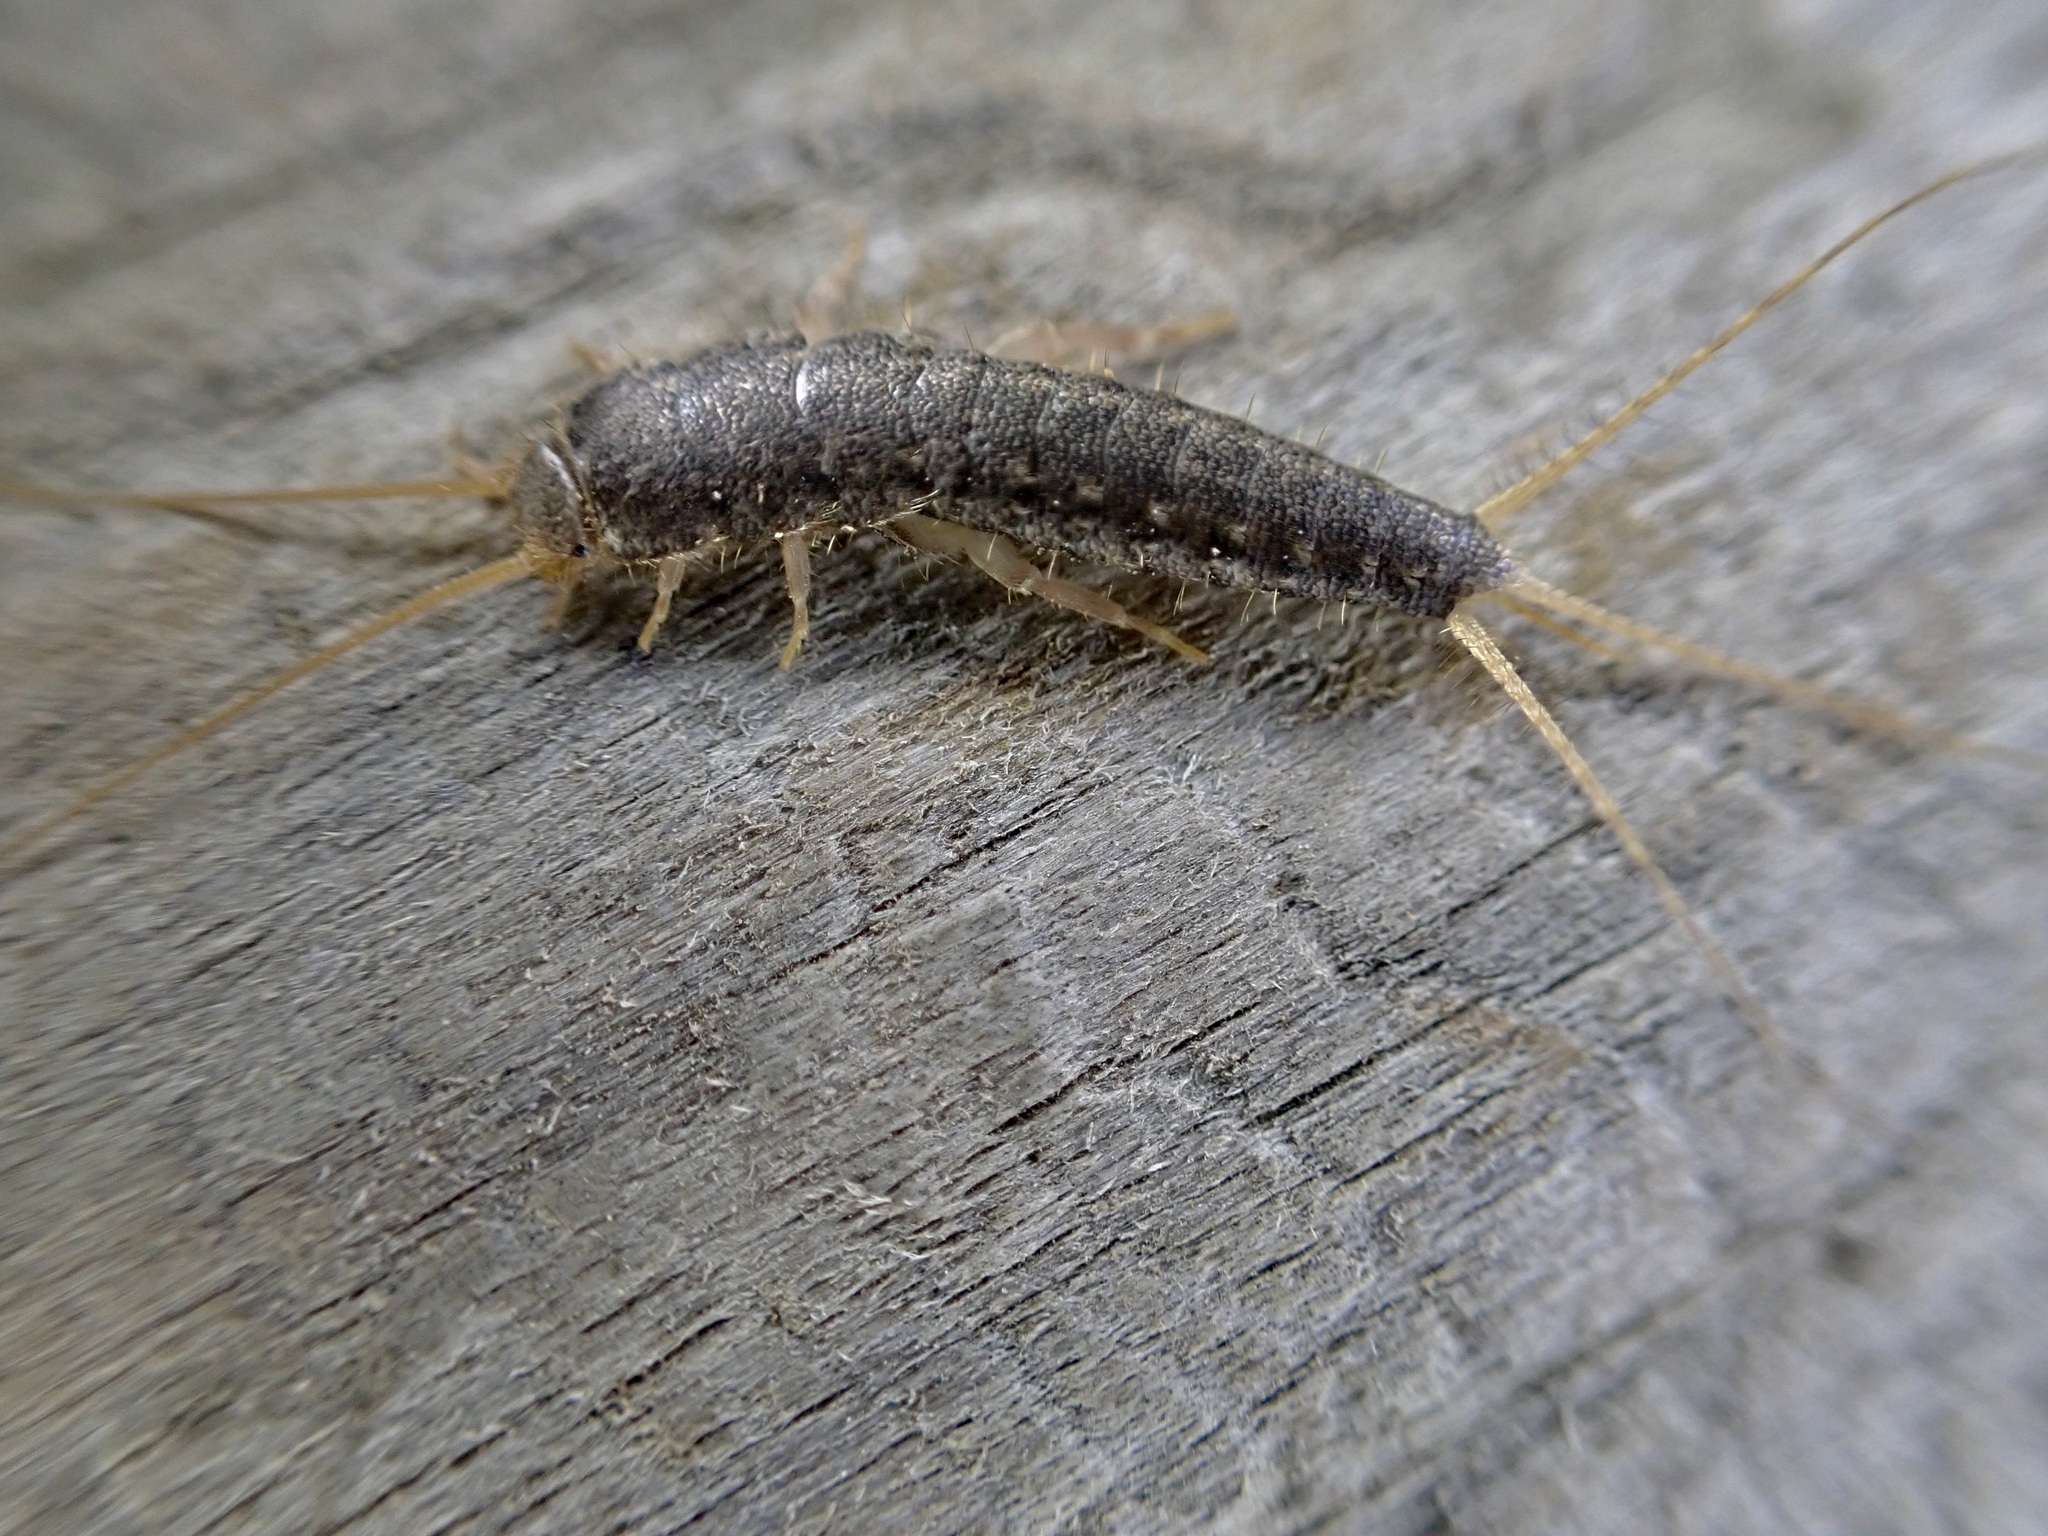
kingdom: Animalia
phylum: Arthropoda
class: Insecta
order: Zygentoma
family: Lepismatidae
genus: Ctenolepisma
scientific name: Ctenolepisma longicaudatum
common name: Silverfish
